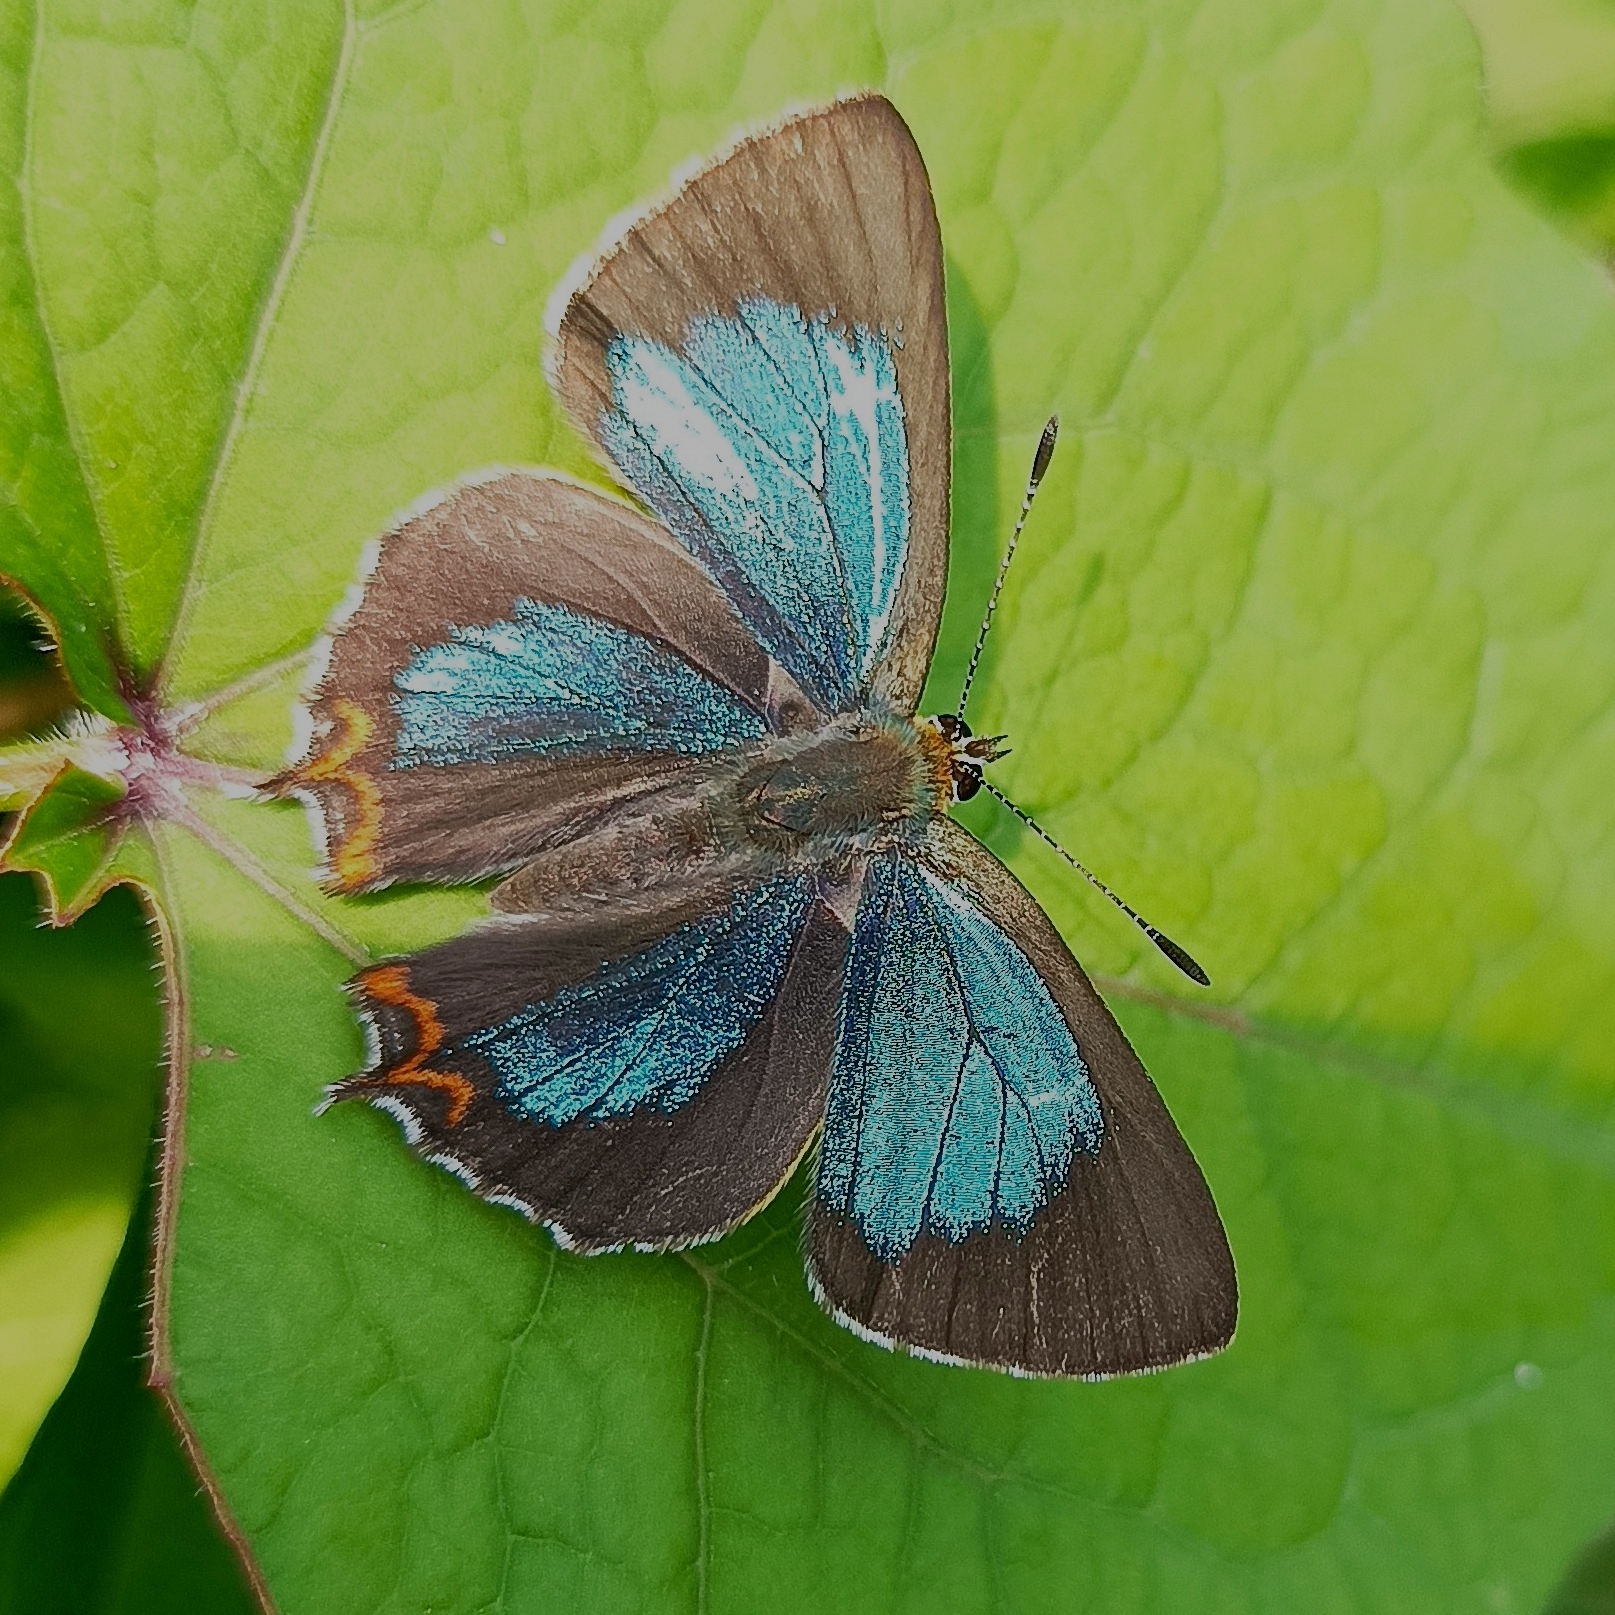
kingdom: Animalia
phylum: Arthropoda
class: Insecta
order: Lepidoptera
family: Lycaenidae
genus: Heliophorus
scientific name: Heliophorus
